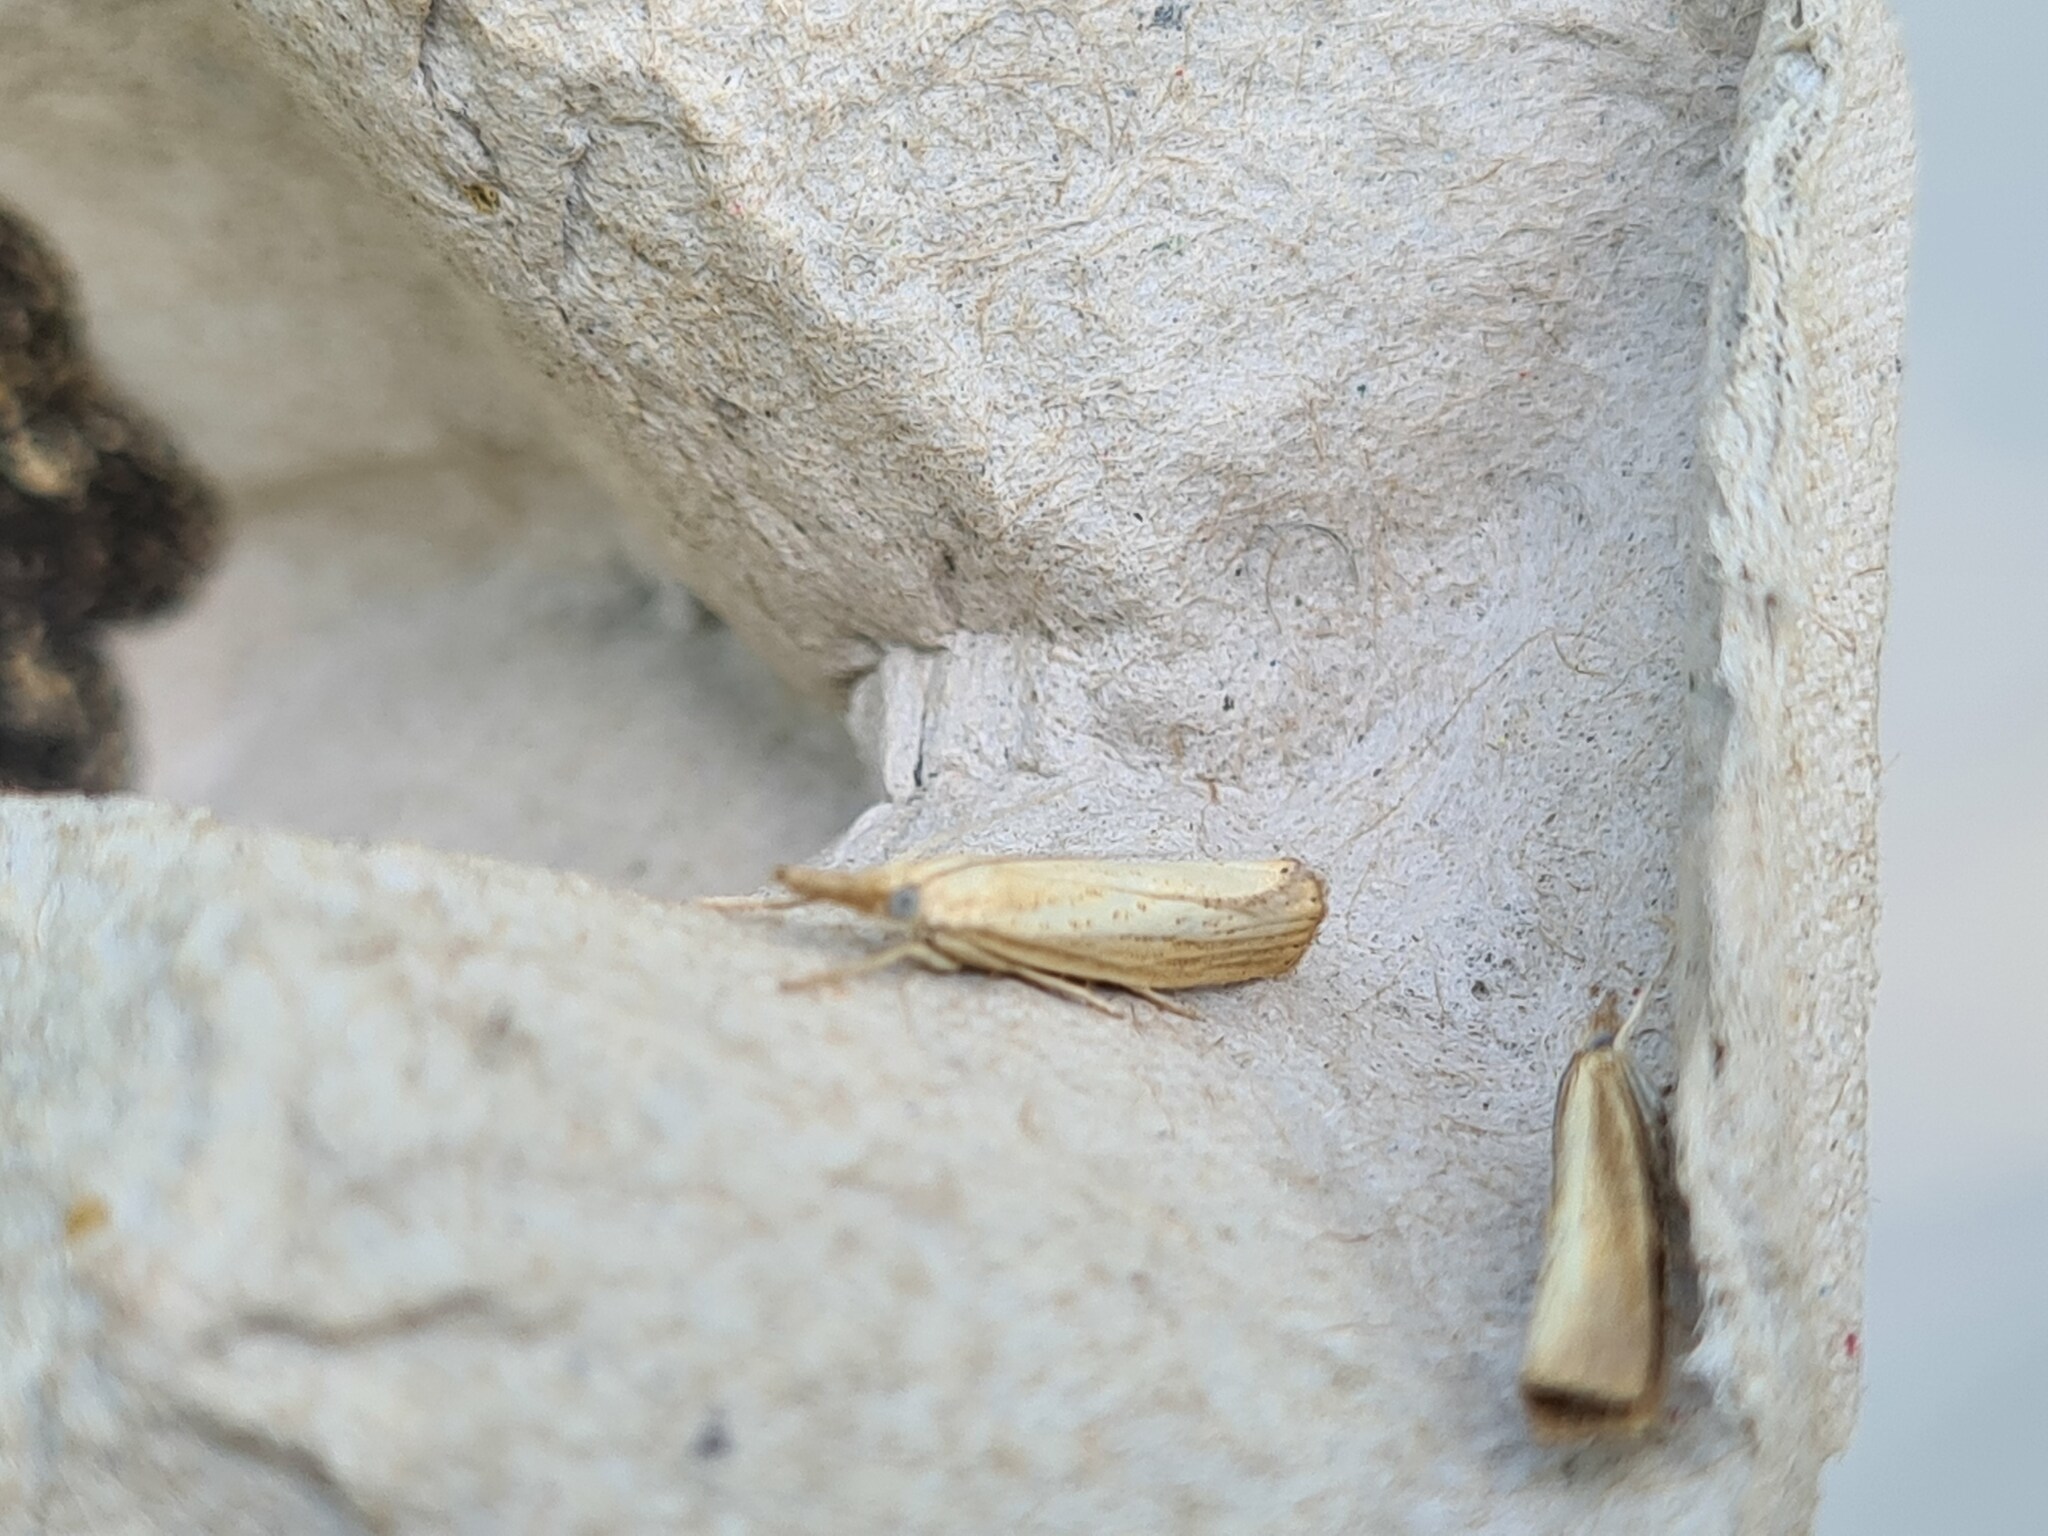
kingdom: Animalia
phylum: Arthropoda
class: Insecta
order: Lepidoptera
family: Crambidae
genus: Agriphila
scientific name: Agriphila straminella
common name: Straw grass-veneer
